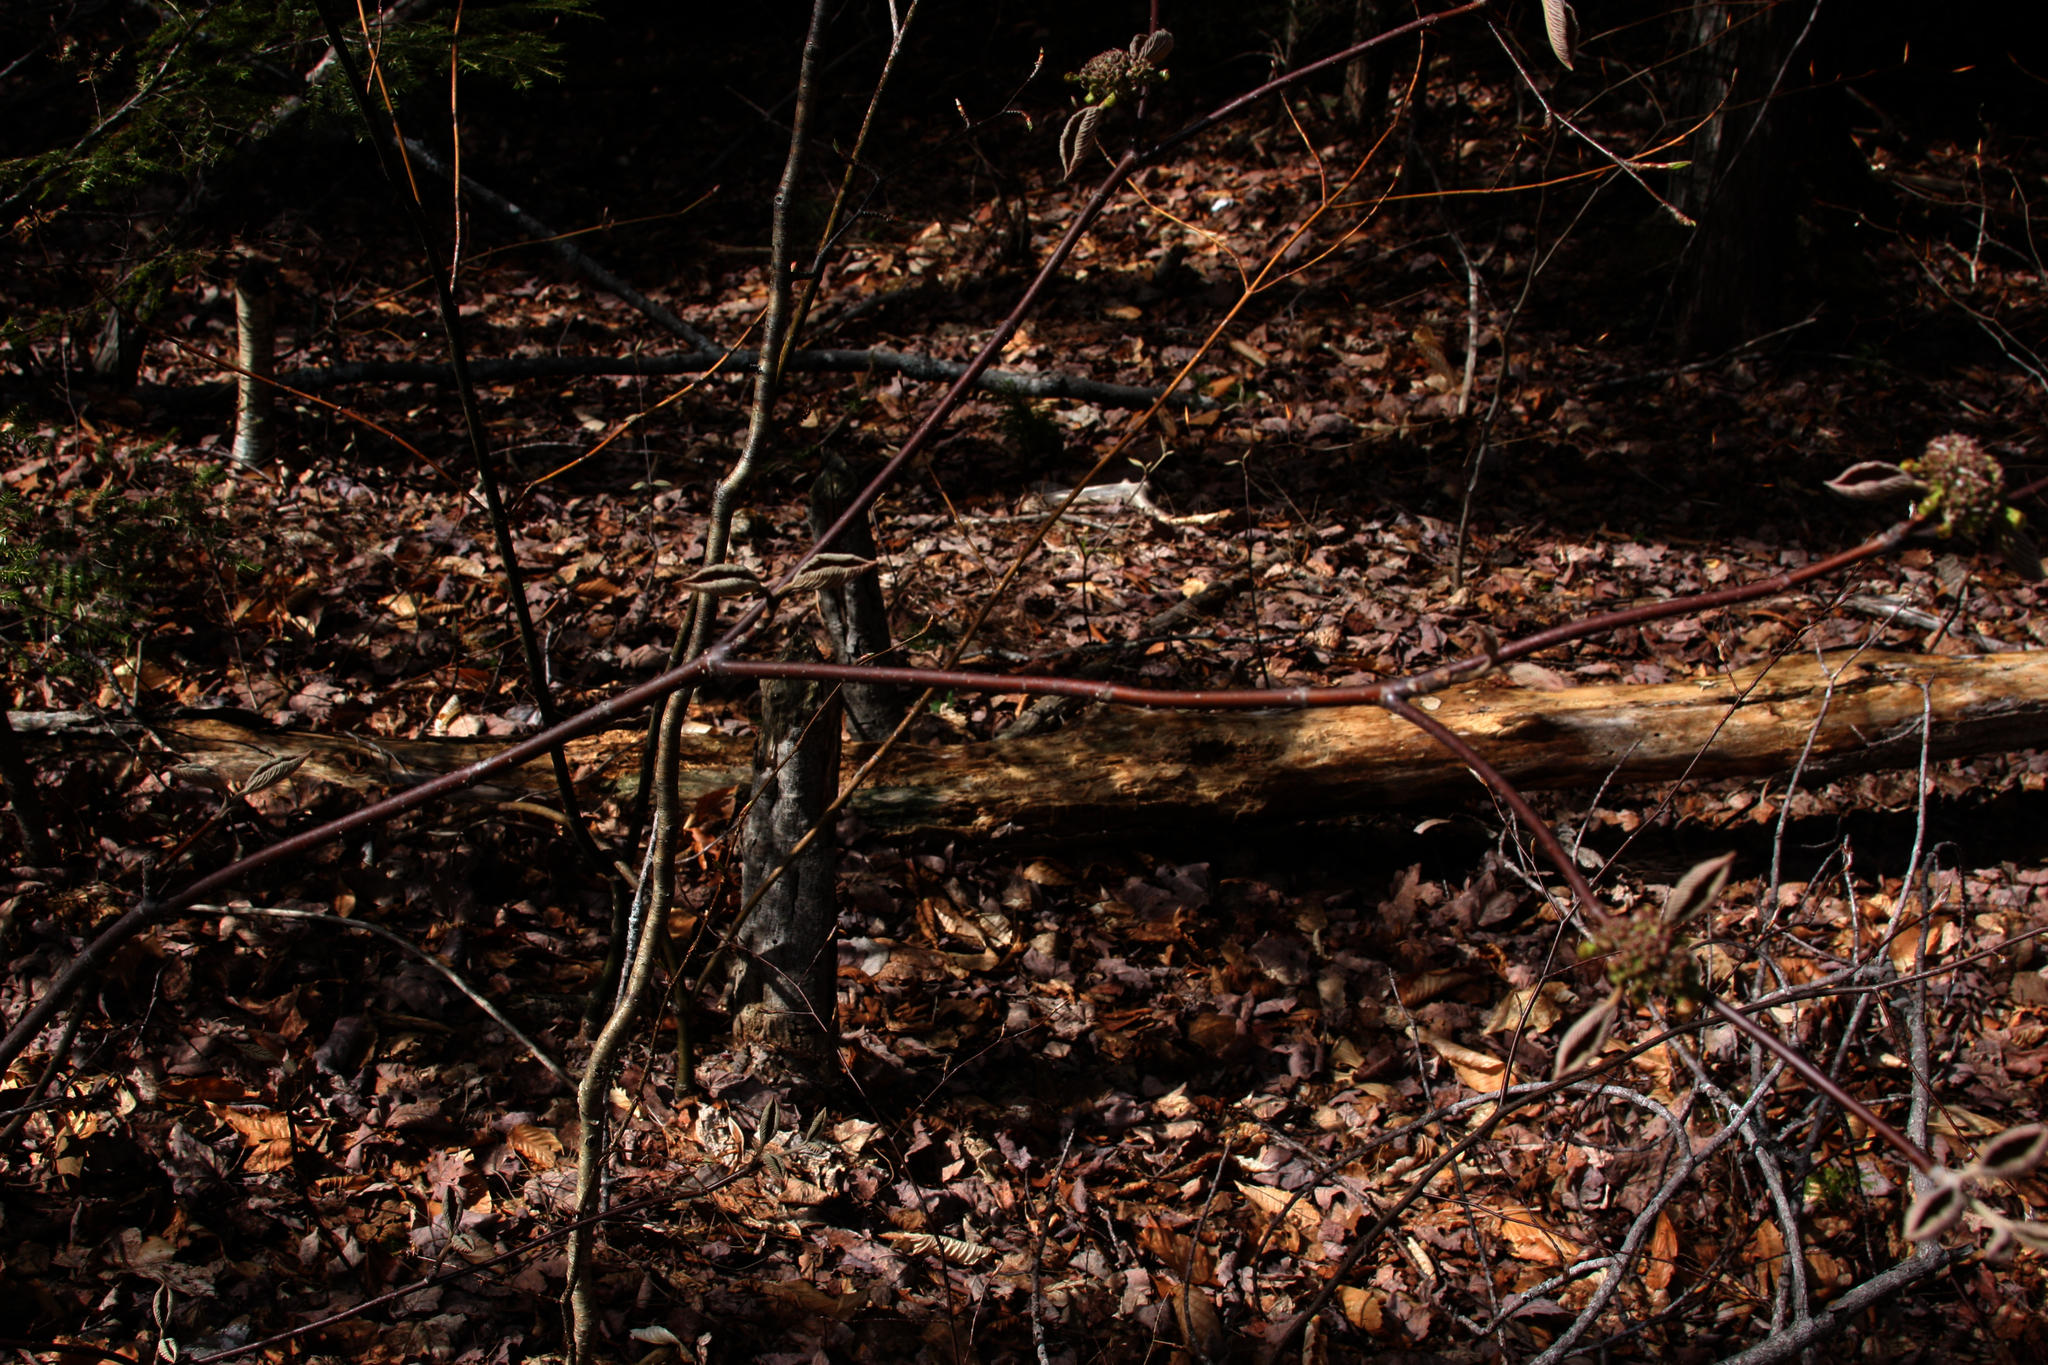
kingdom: Plantae
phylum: Tracheophyta
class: Magnoliopsida
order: Dipsacales
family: Viburnaceae
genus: Viburnum
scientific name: Viburnum lantanoides
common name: Hobblebush
